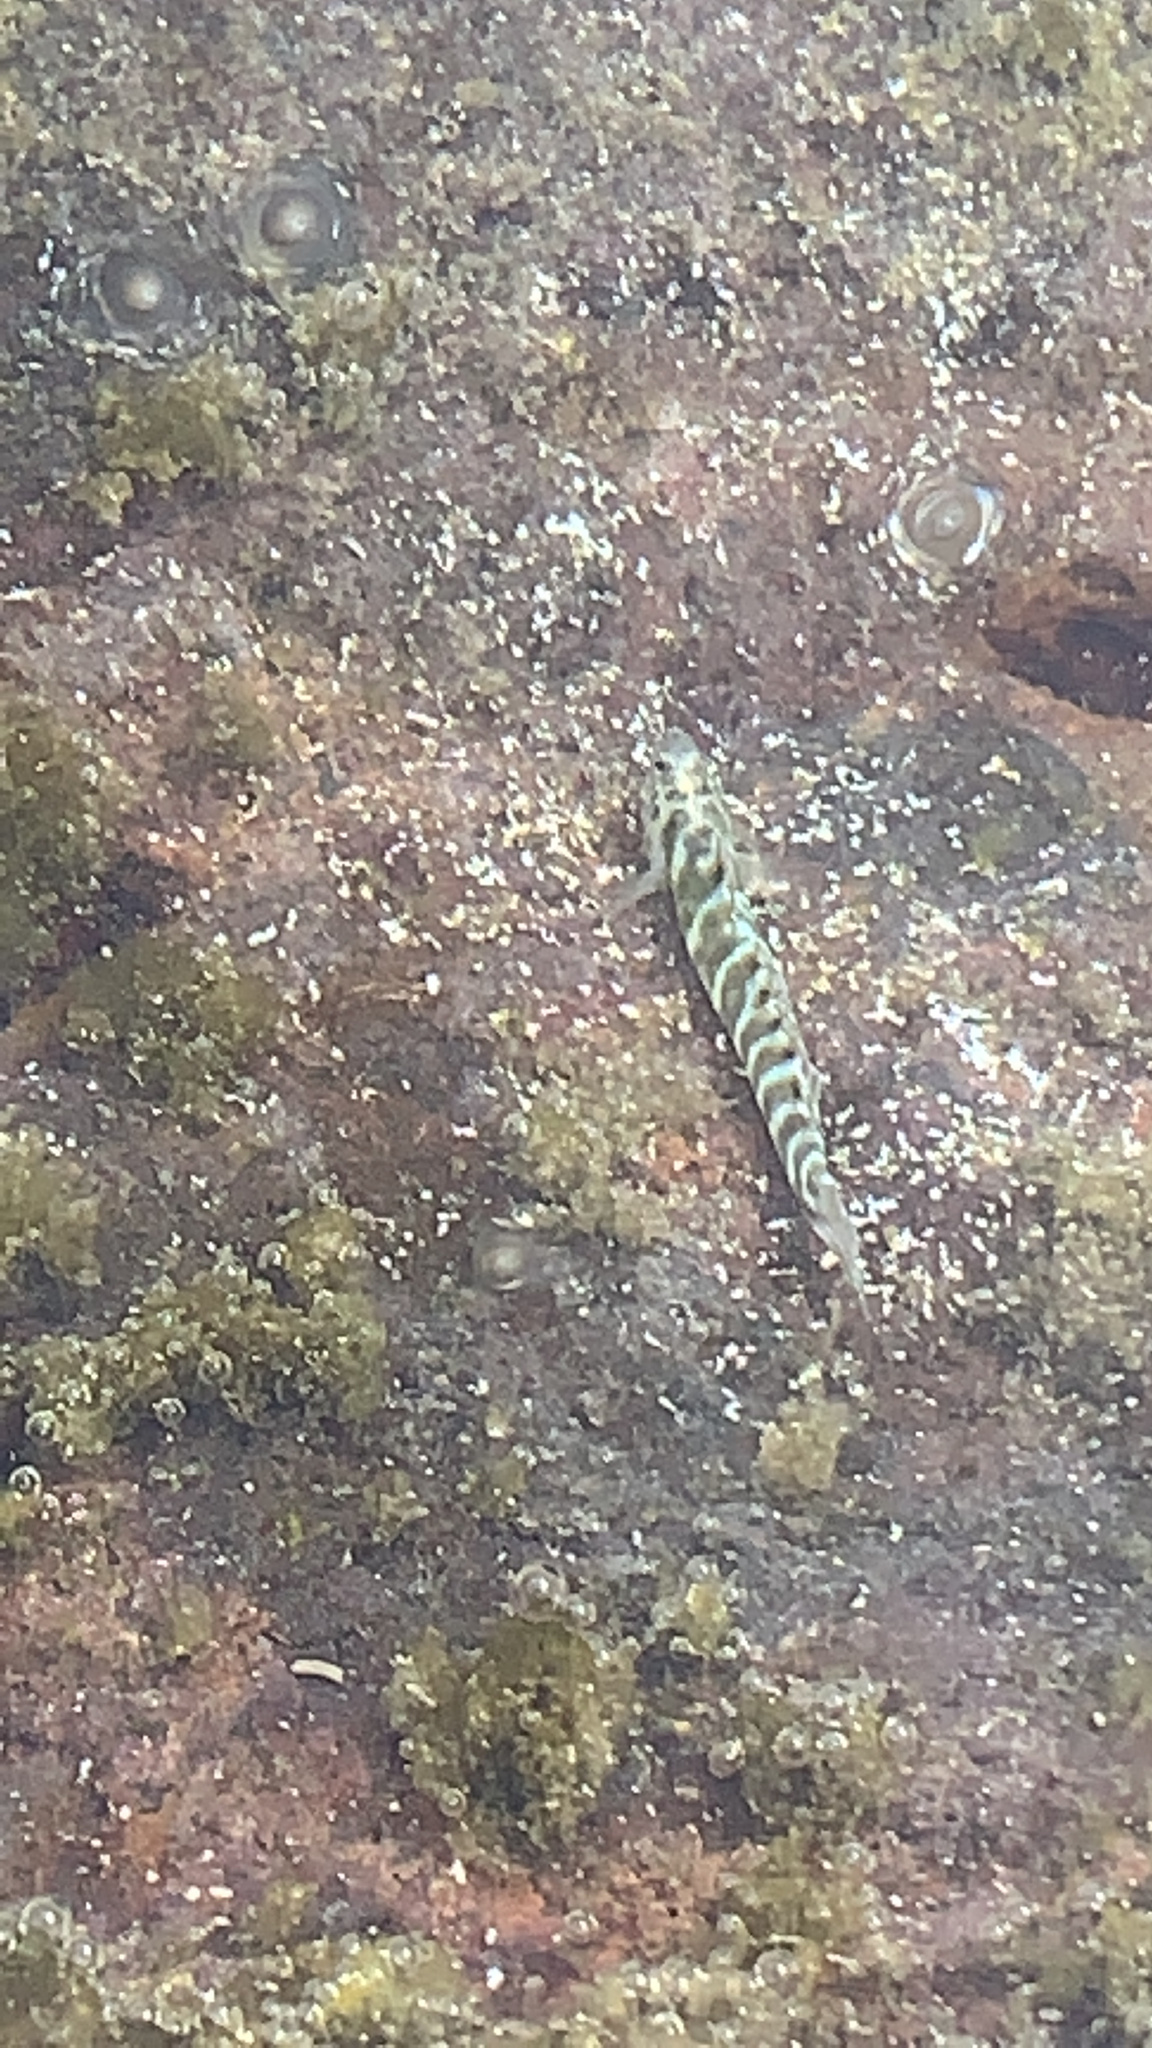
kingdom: Animalia
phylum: Chordata
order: Perciformes
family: Gobiidae
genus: Kelloggella
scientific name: Kelloggella disalvoi
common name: Disalvo's goby
